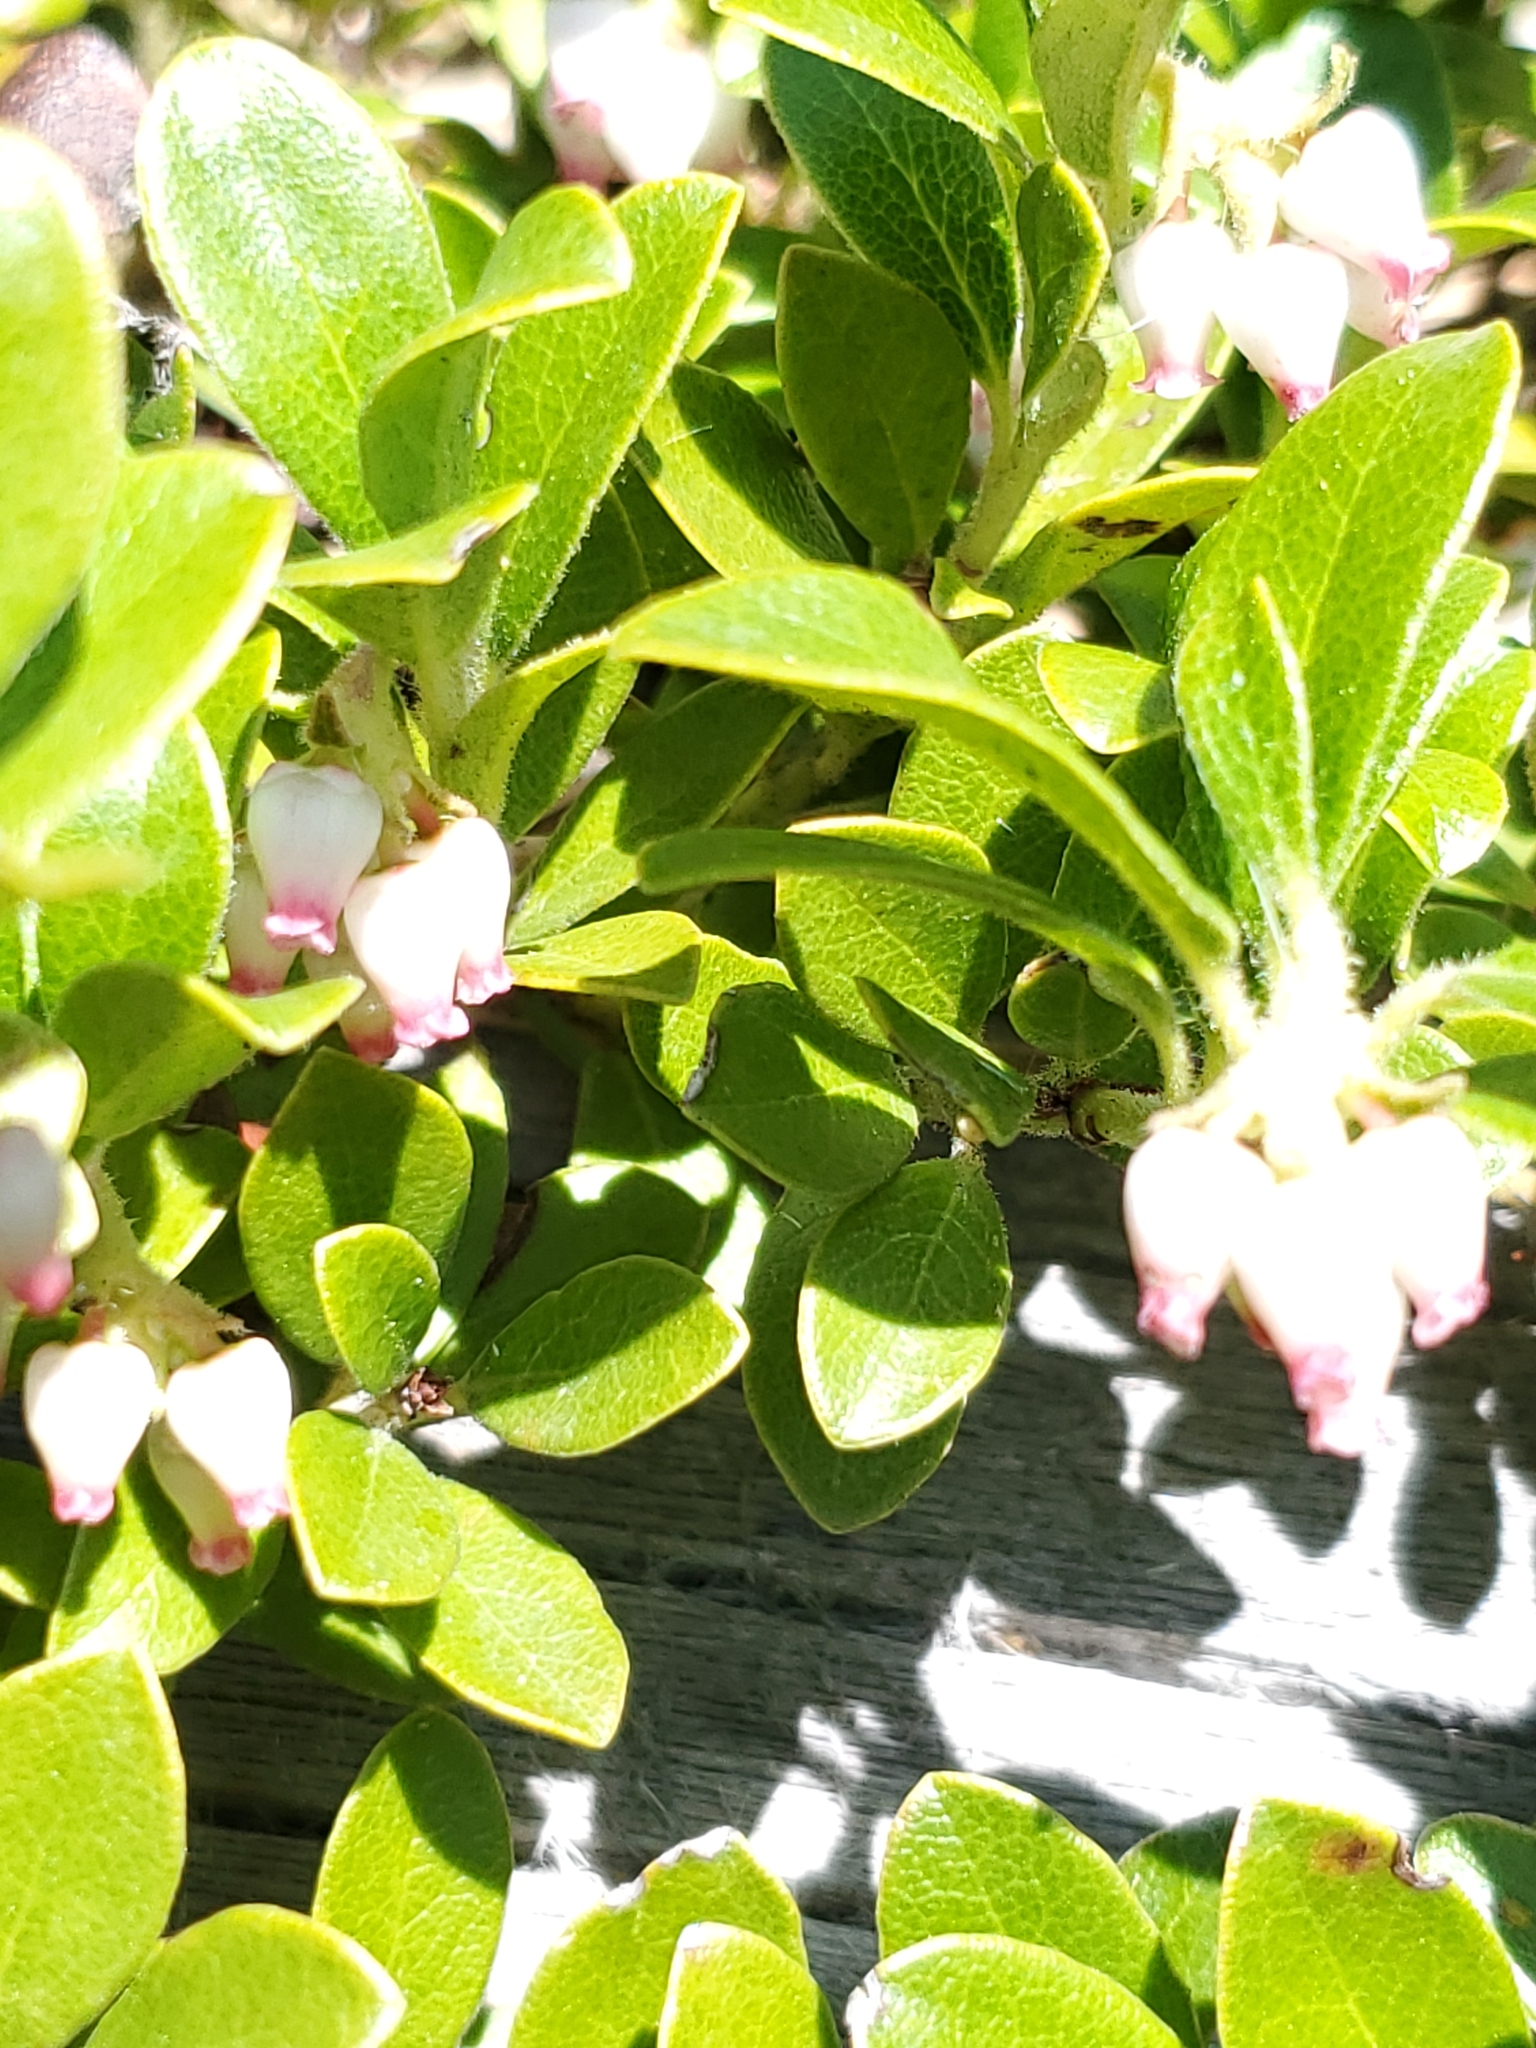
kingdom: Plantae
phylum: Tracheophyta
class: Magnoliopsida
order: Ericales
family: Ericaceae
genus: Arctostaphylos
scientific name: Arctostaphylos uva-ursi
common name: Bearberry
